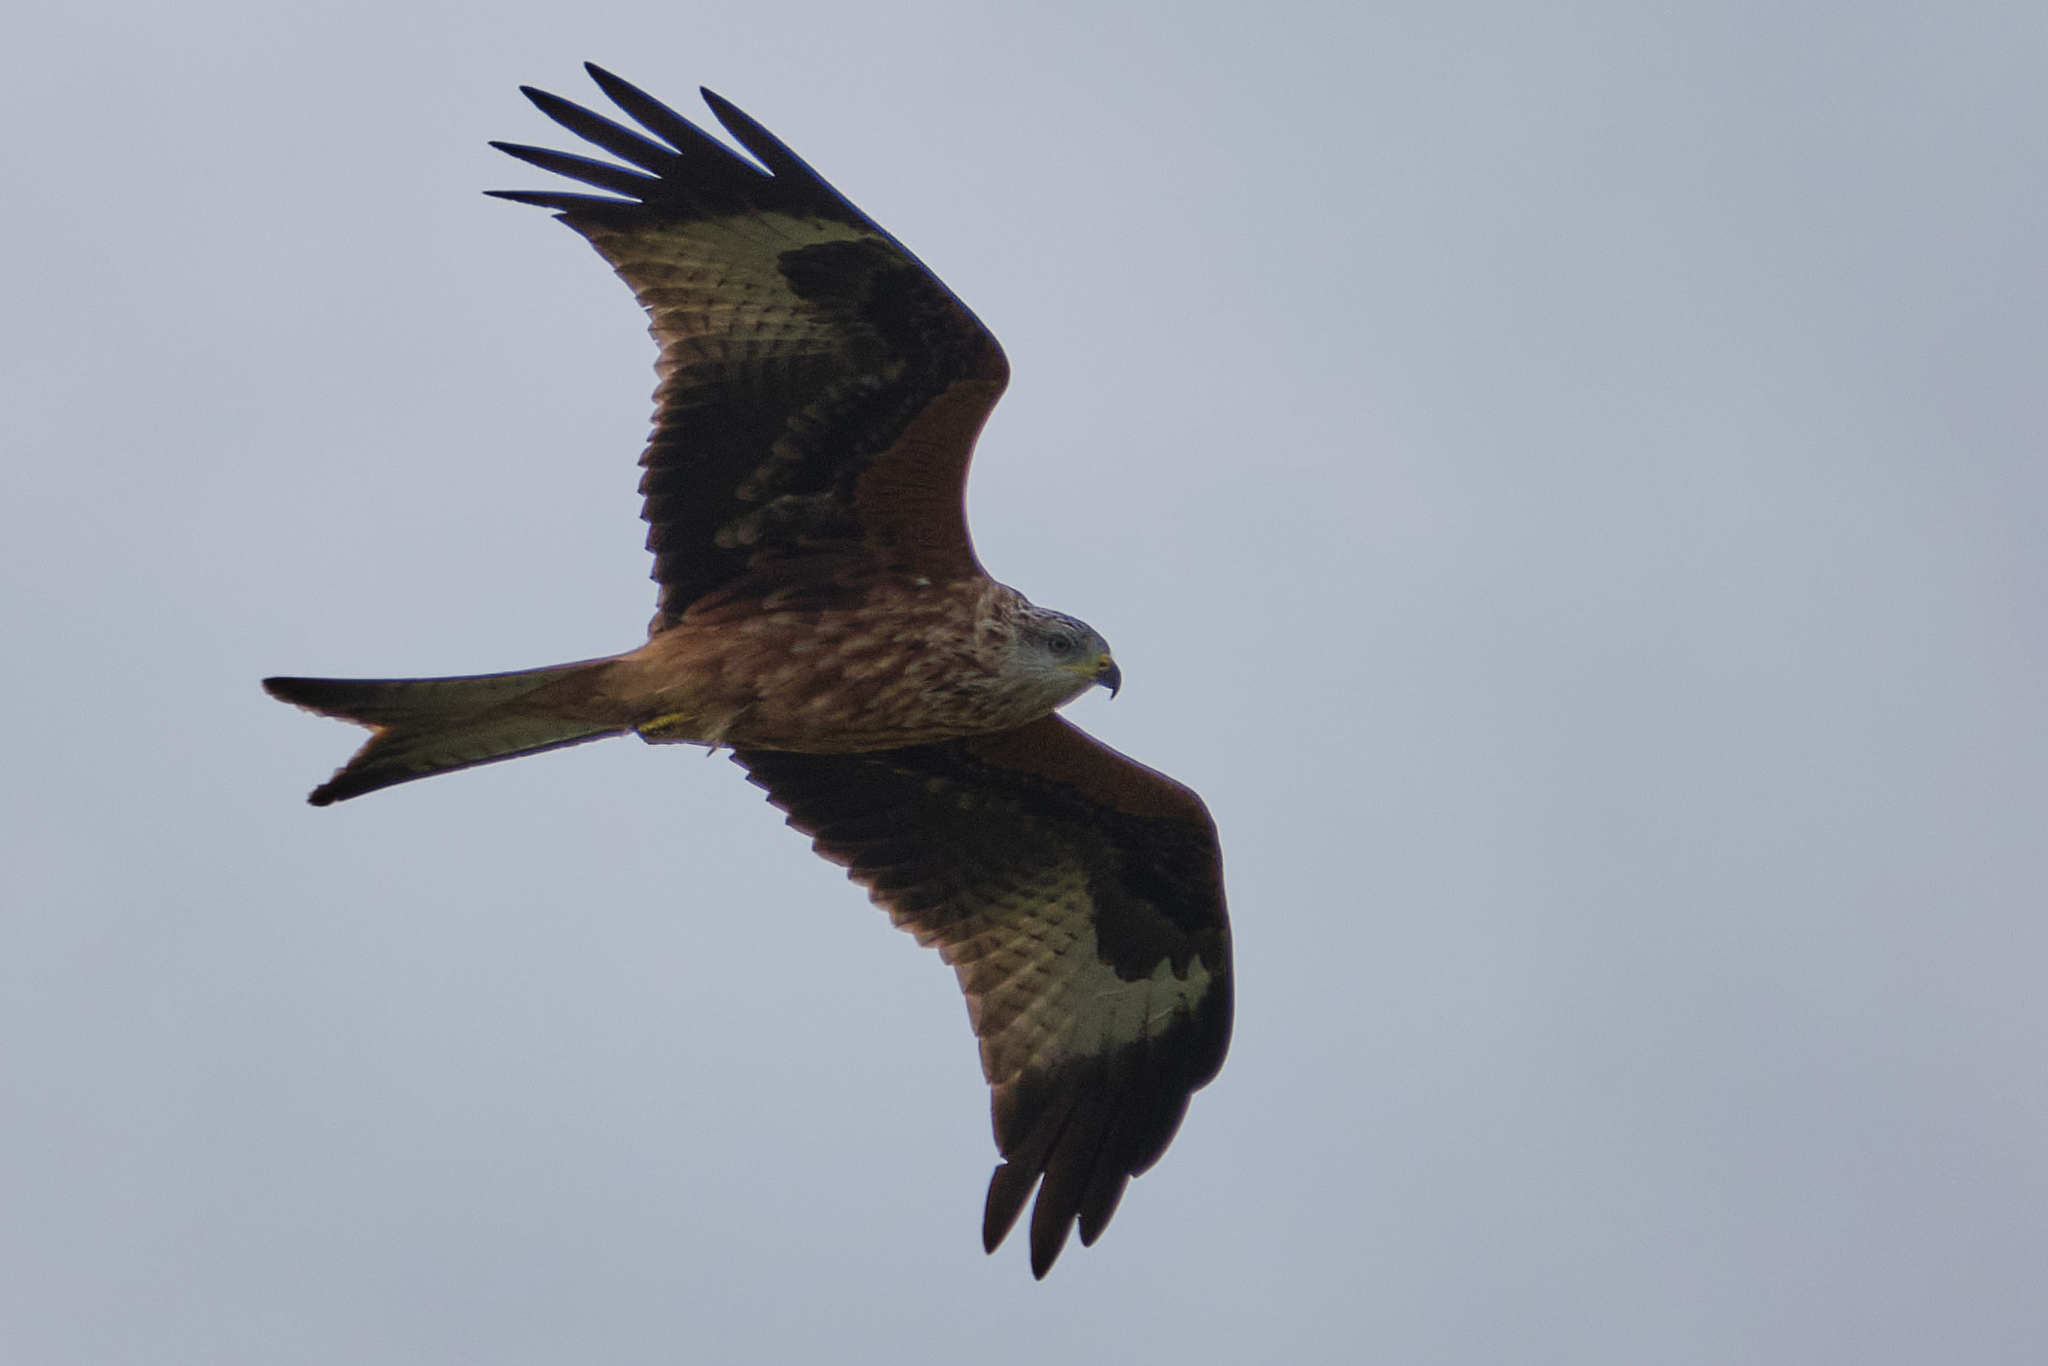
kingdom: Animalia
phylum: Chordata
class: Aves
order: Accipitriformes
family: Accipitridae
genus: Milvus
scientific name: Milvus milvus
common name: Red kite
